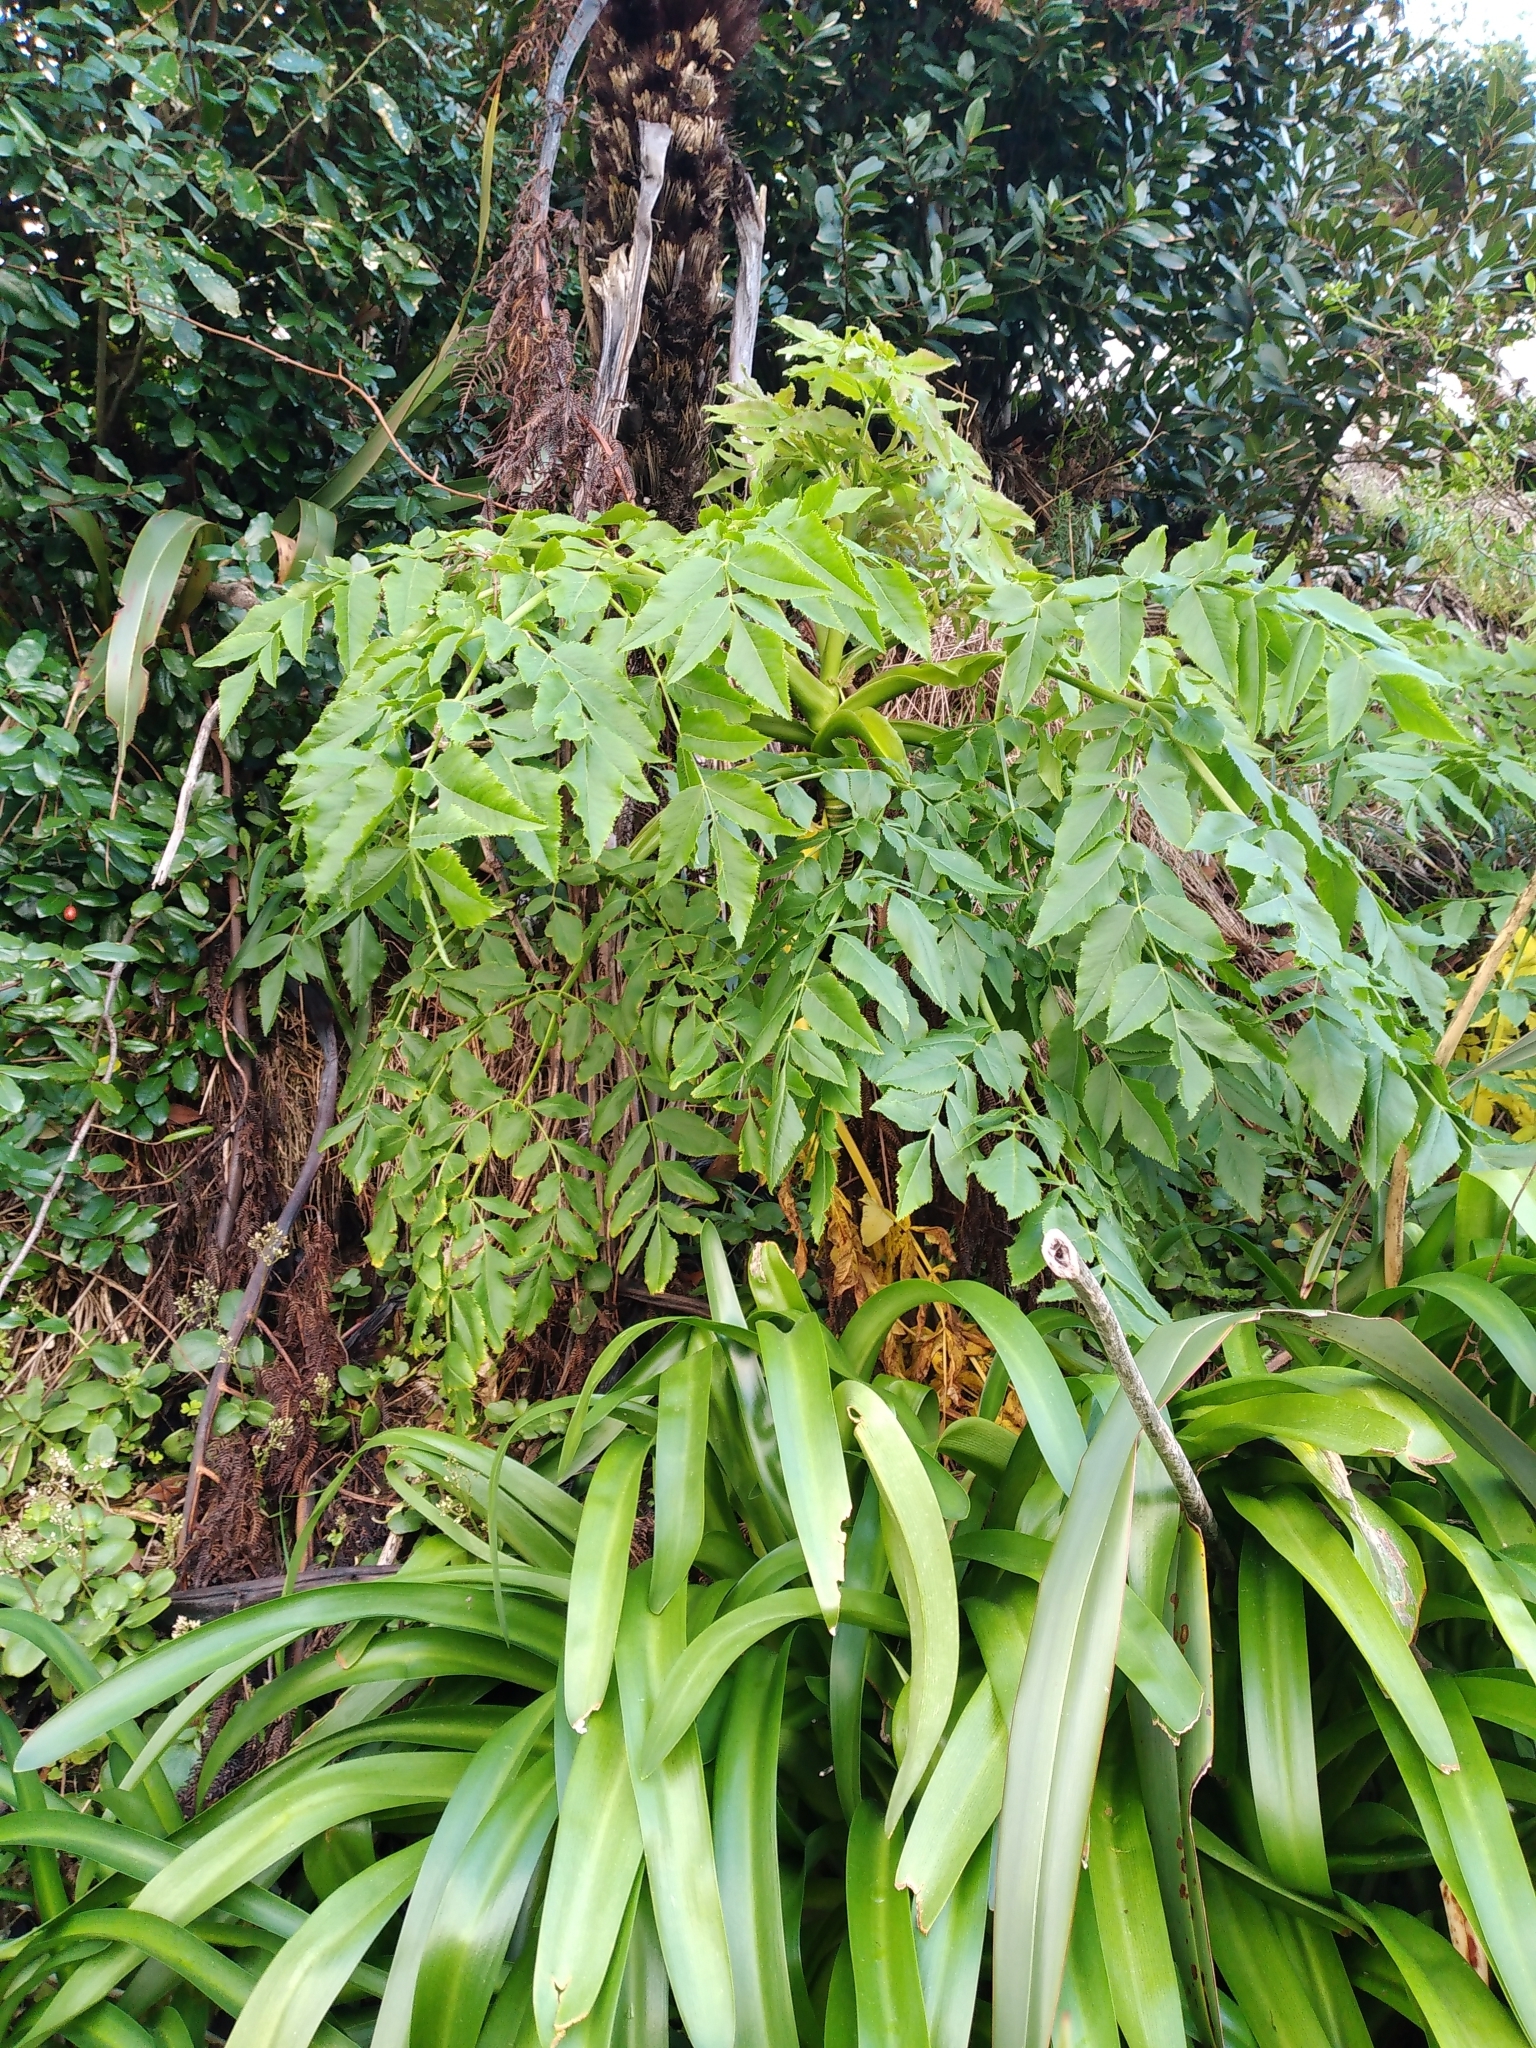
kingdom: Plantae
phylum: Tracheophyta
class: Magnoliopsida
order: Apiales
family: Apiaceae
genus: Daucus
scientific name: Daucus decipiens
